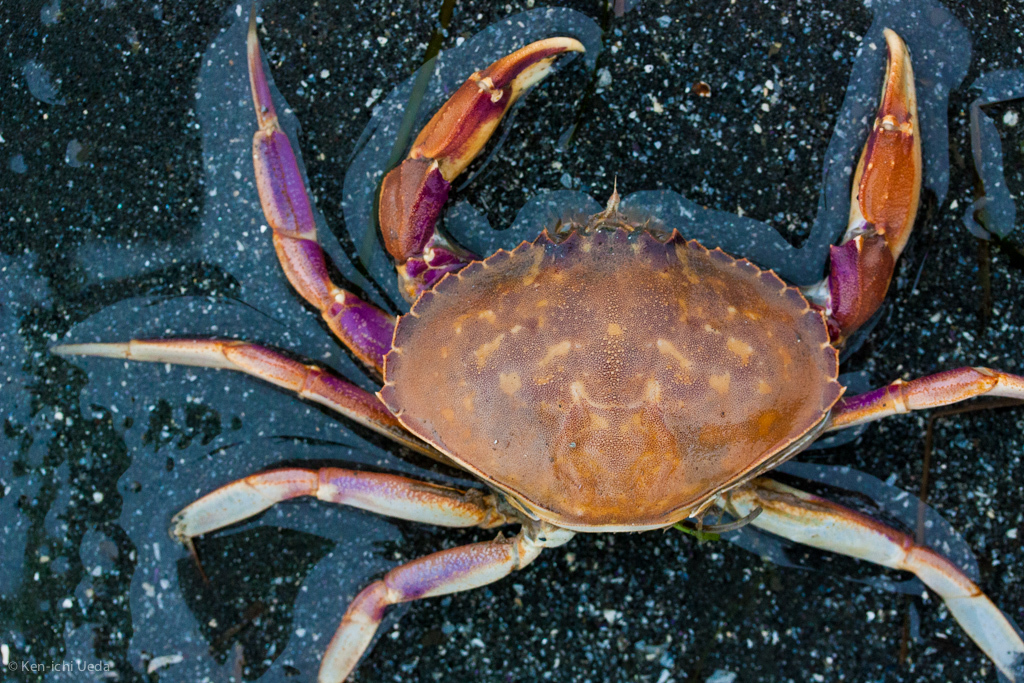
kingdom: Animalia
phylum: Arthropoda
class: Malacostraca
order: Decapoda
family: Cancridae
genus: Metacarcinus
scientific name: Metacarcinus gracilis
